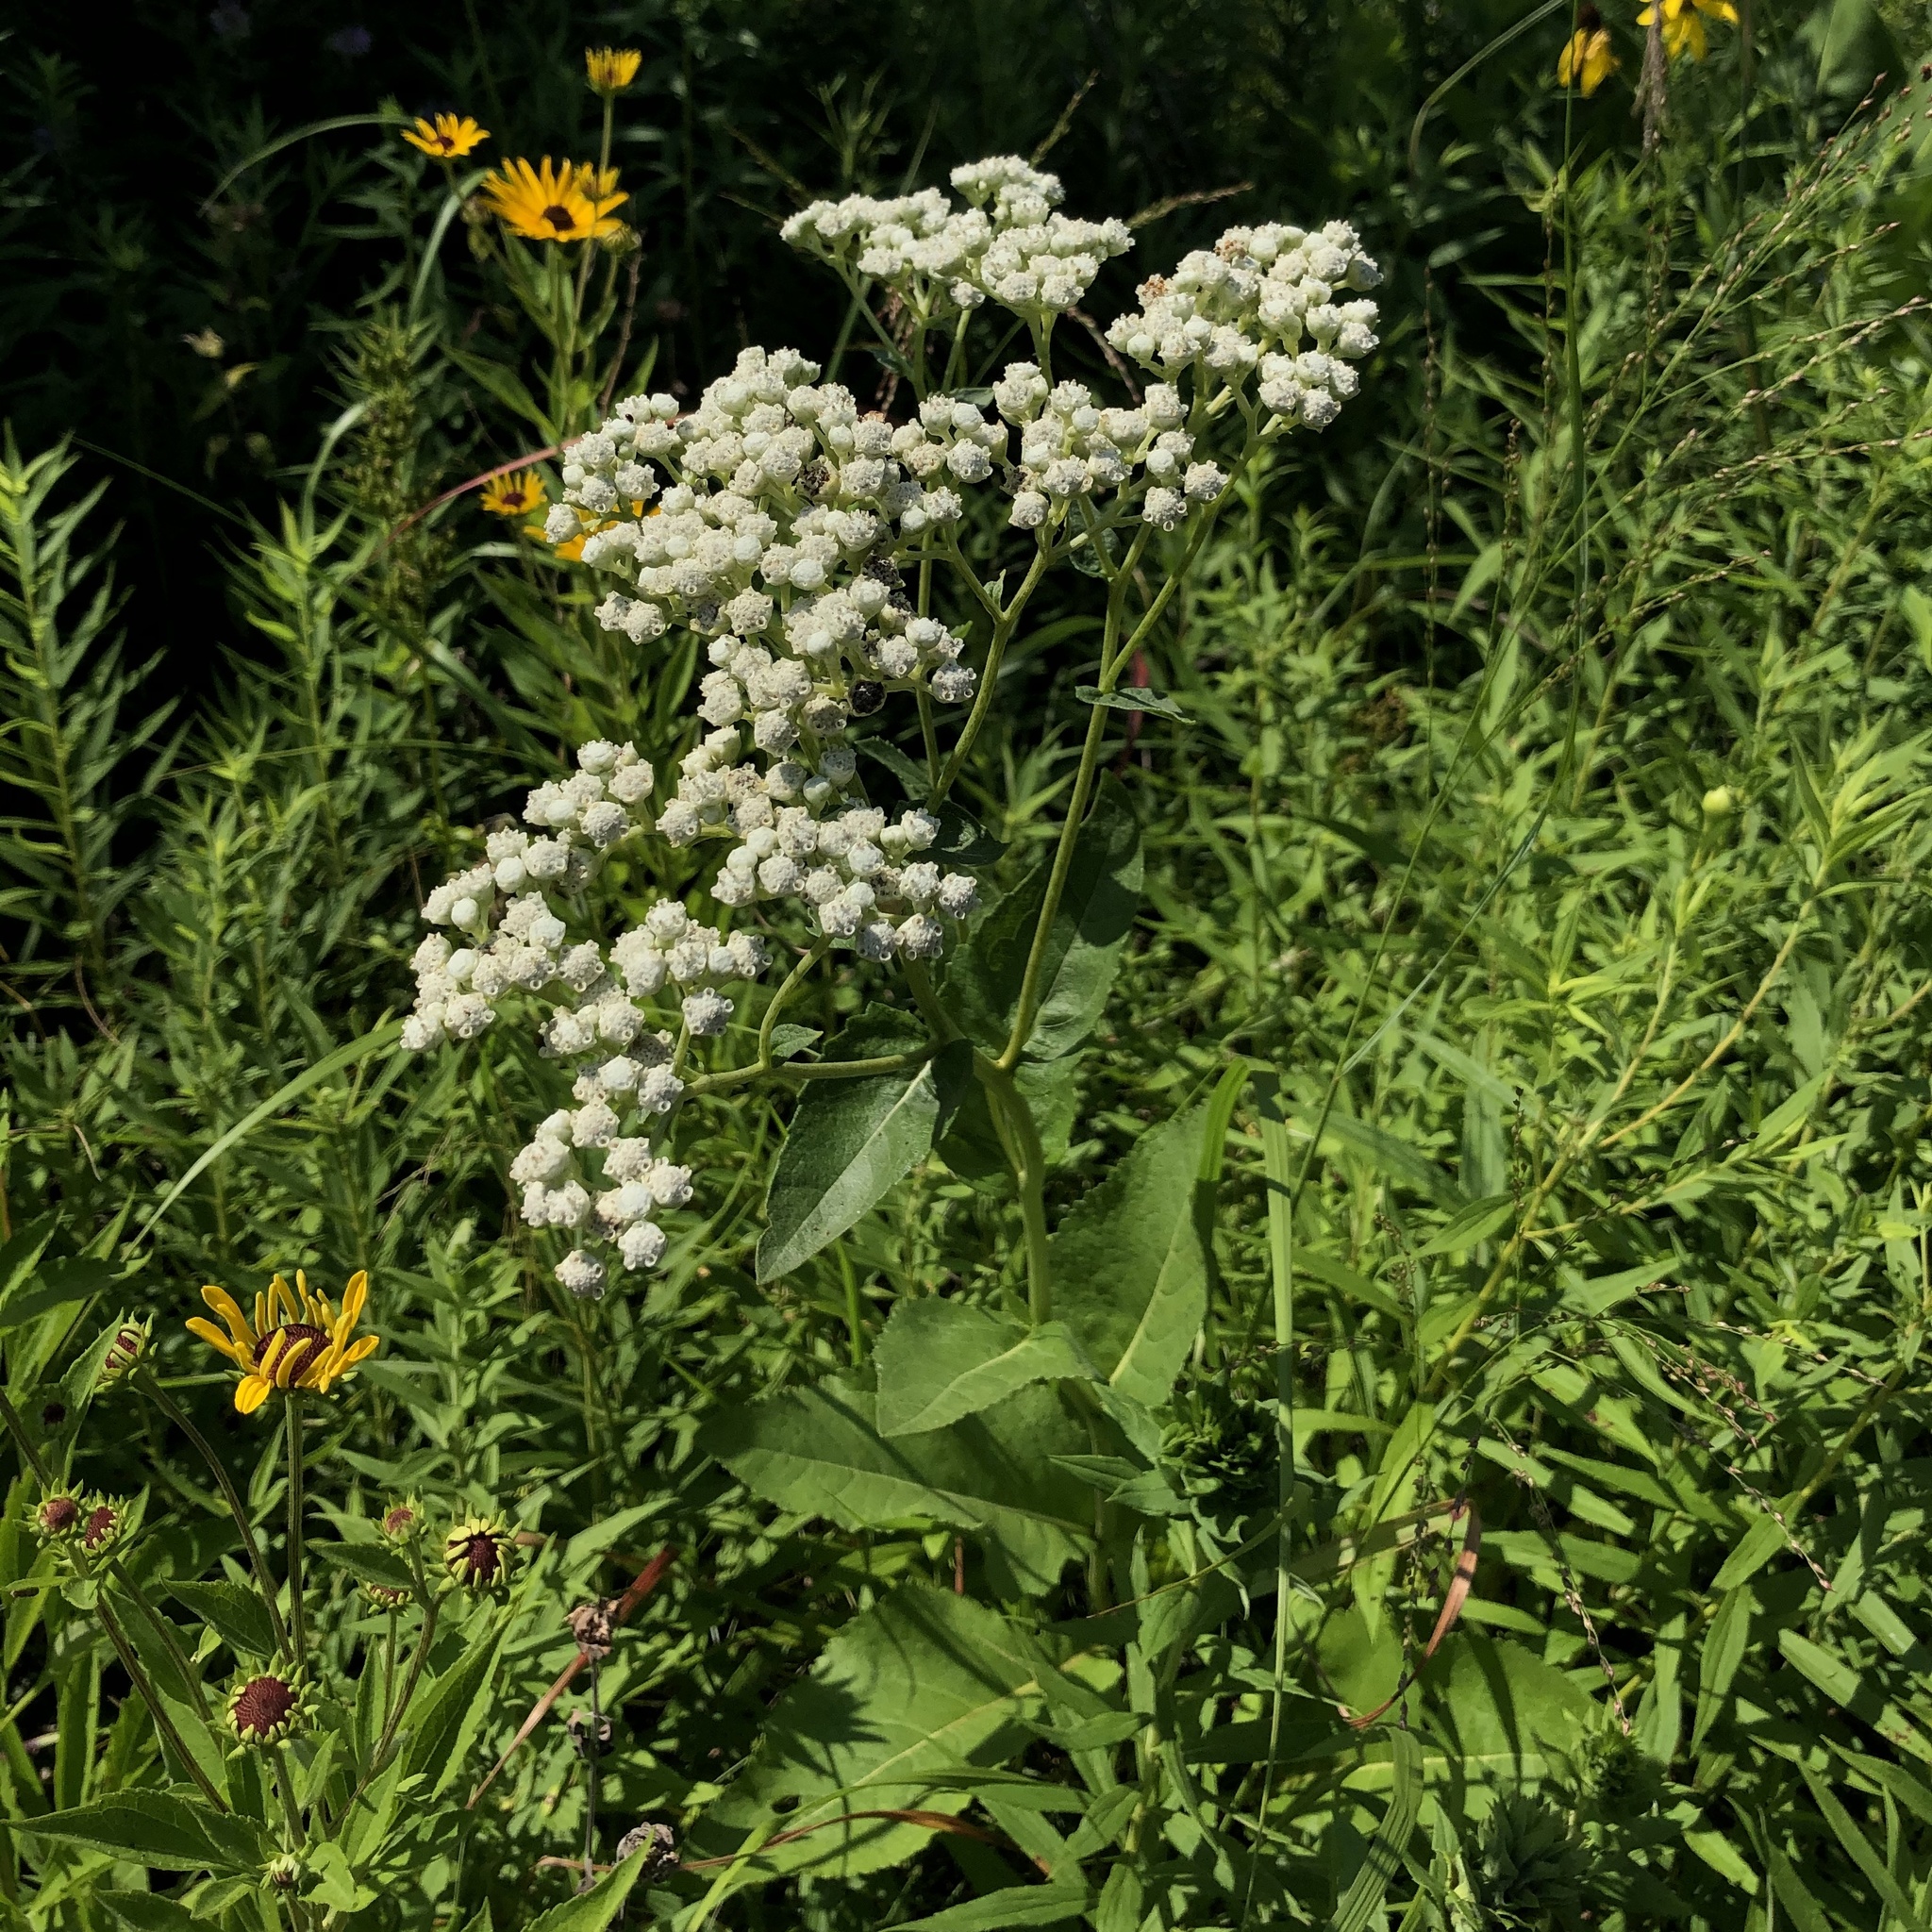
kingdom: Plantae
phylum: Tracheophyta
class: Magnoliopsida
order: Asterales
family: Asteraceae
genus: Parthenium
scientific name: Parthenium integrifolium
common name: American feverfew
